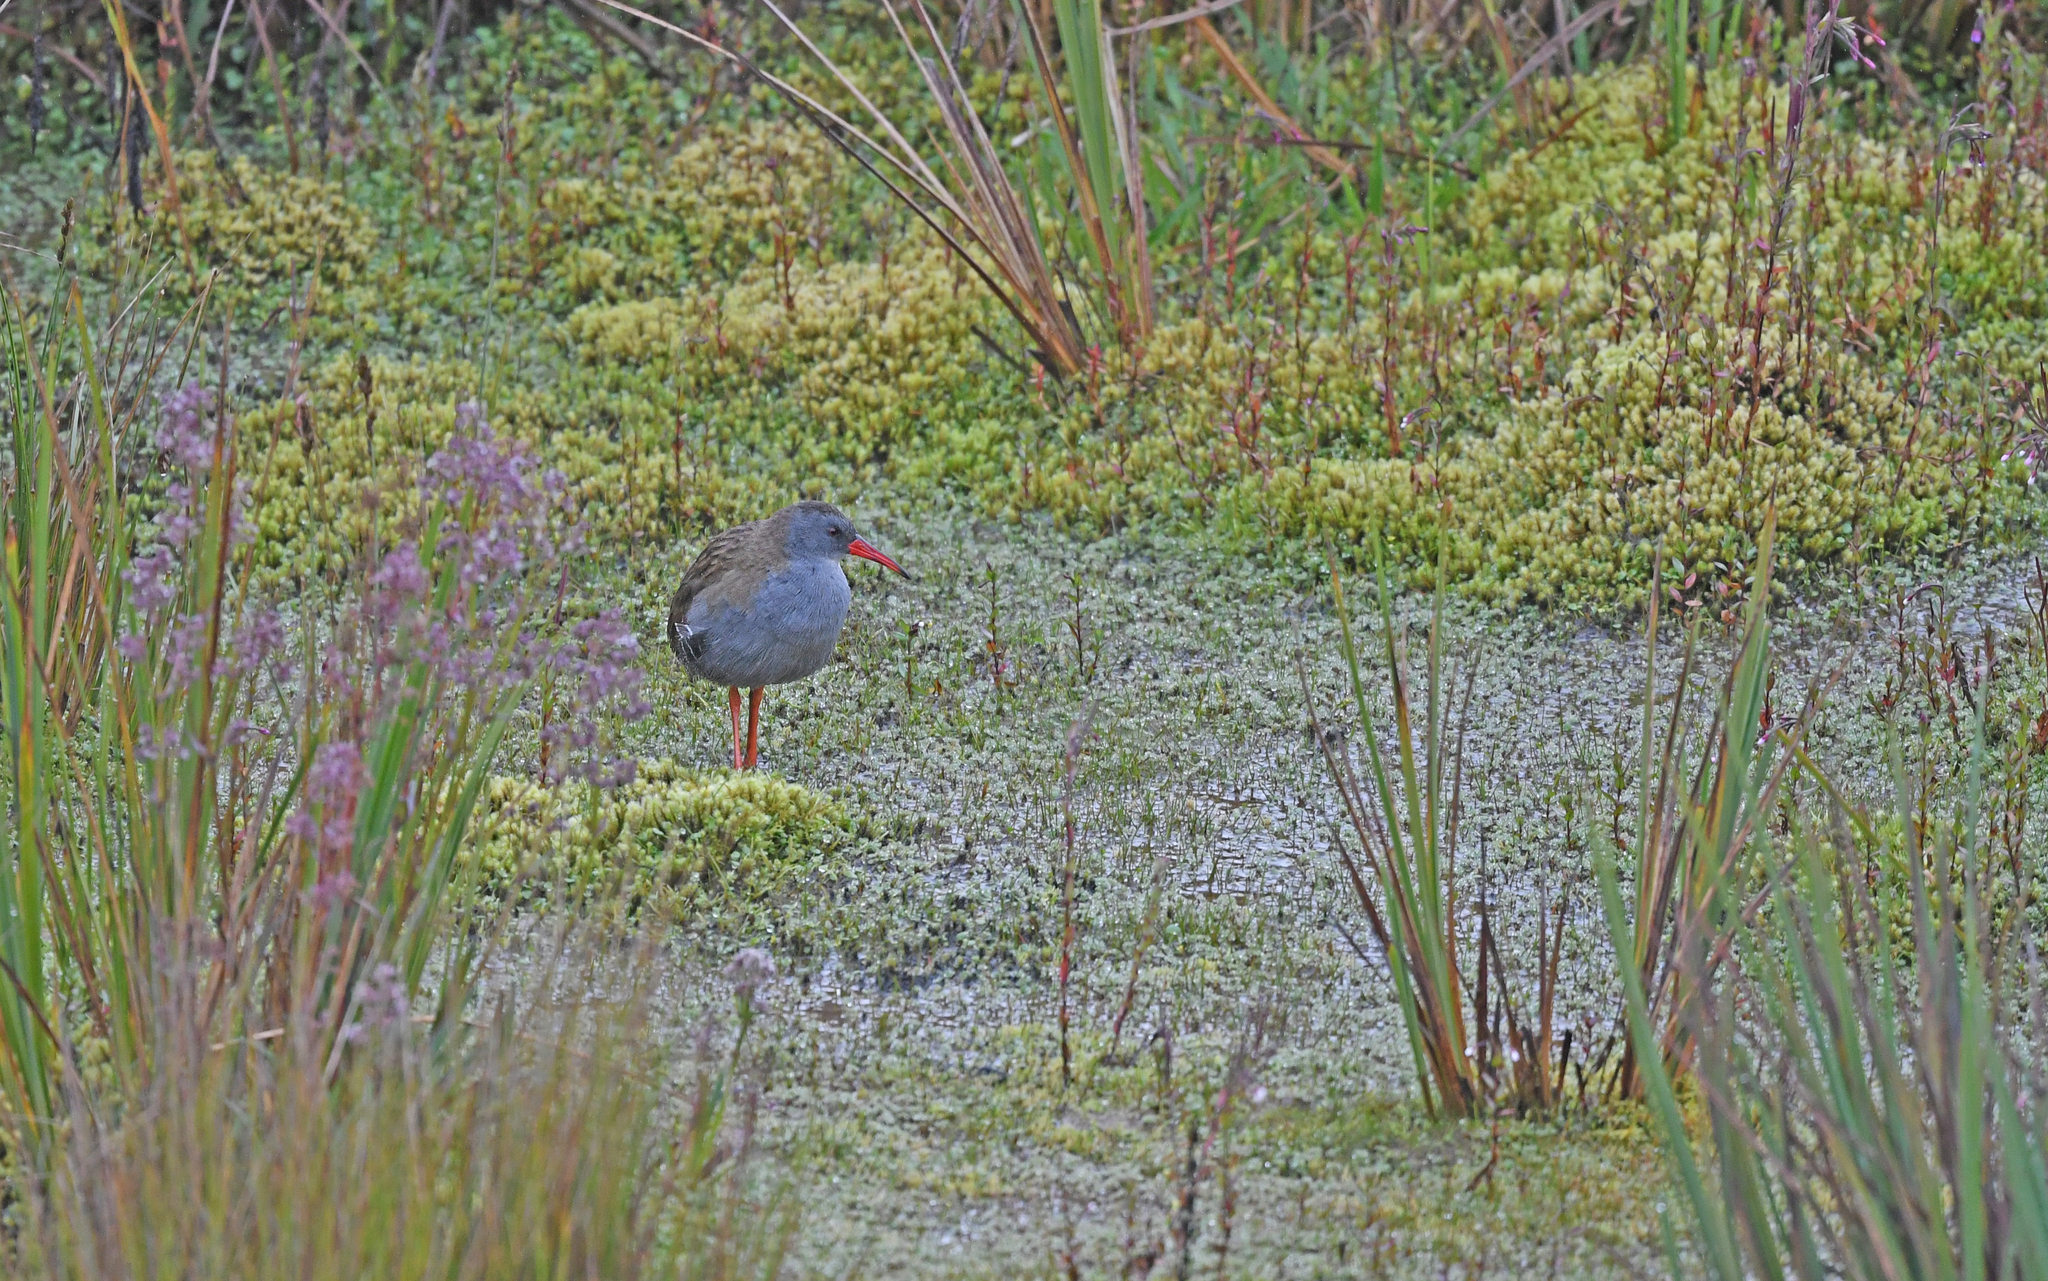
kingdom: Animalia
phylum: Chordata
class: Aves
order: Gruiformes
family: Rallidae
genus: Rallus
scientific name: Rallus semiplumbeus
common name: Bogota rail
